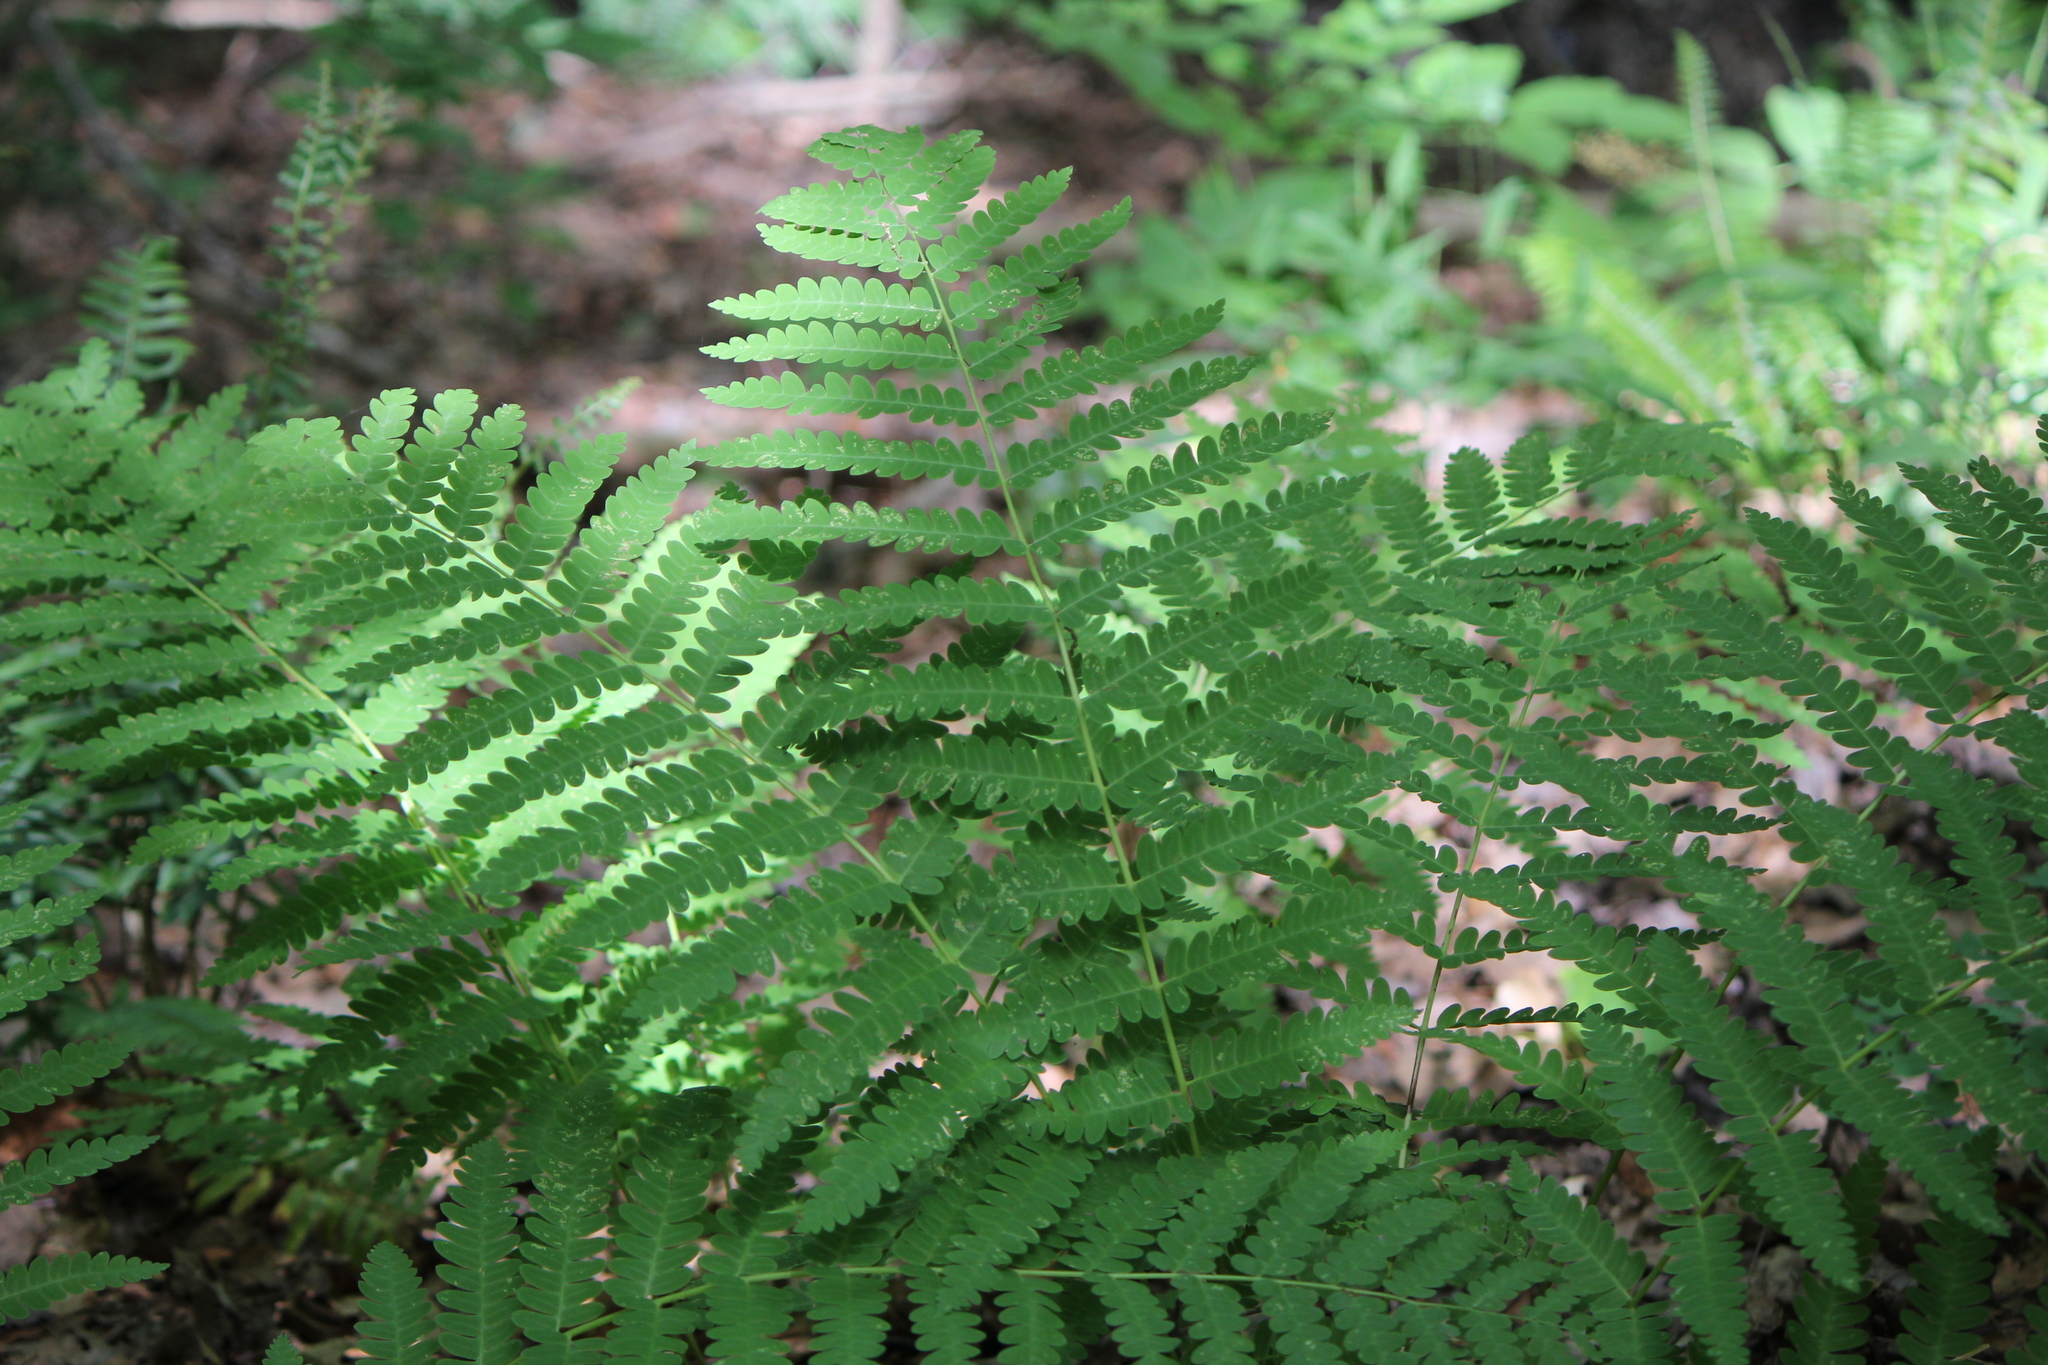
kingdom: Plantae
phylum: Tracheophyta
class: Polypodiopsida
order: Osmundales
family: Osmundaceae
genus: Claytosmunda
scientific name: Claytosmunda claytoniana
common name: Clayton's fern
